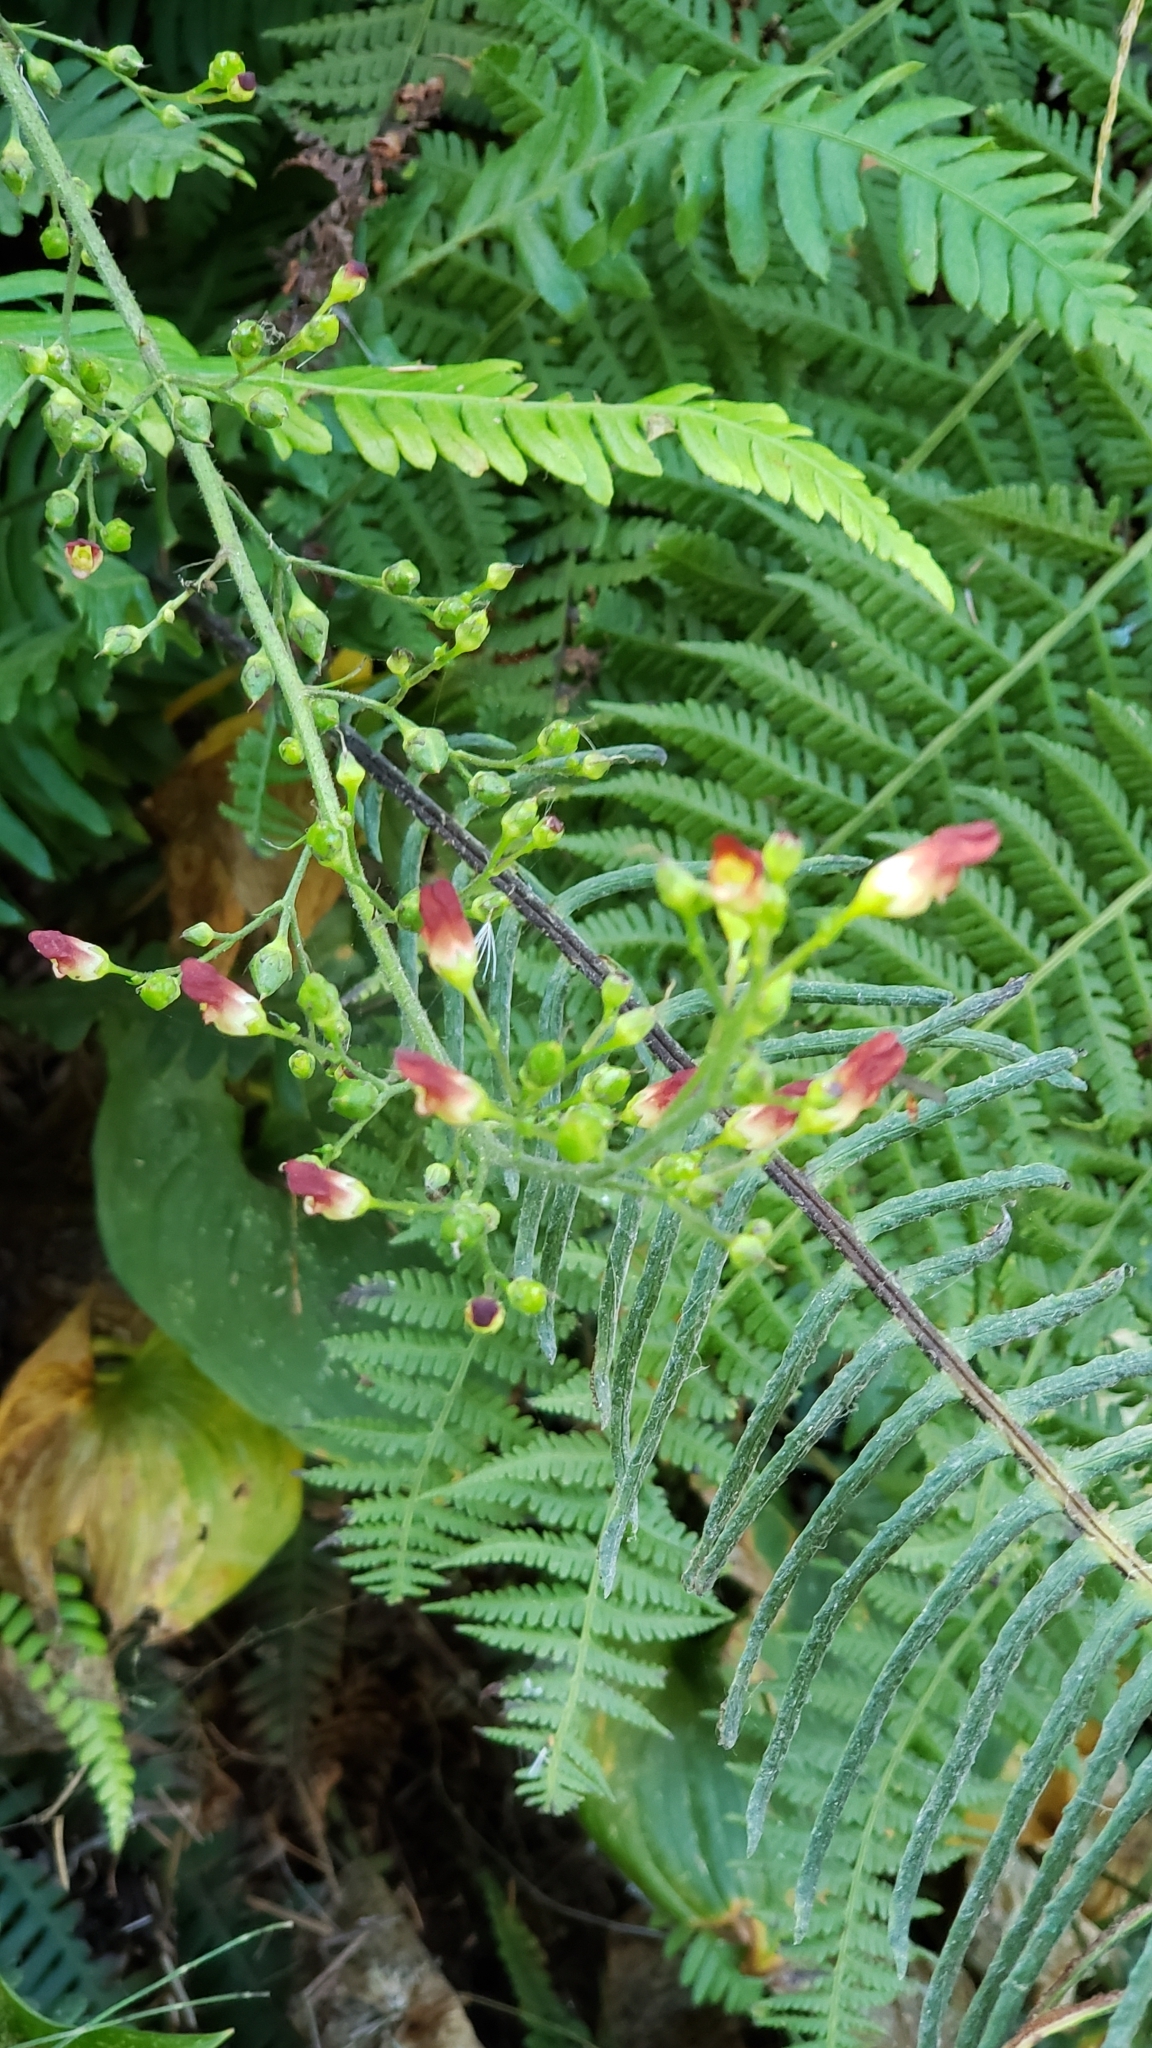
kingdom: Plantae
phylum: Tracheophyta
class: Magnoliopsida
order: Lamiales
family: Scrophulariaceae
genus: Scrophularia
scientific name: Scrophularia californica
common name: California figwort
